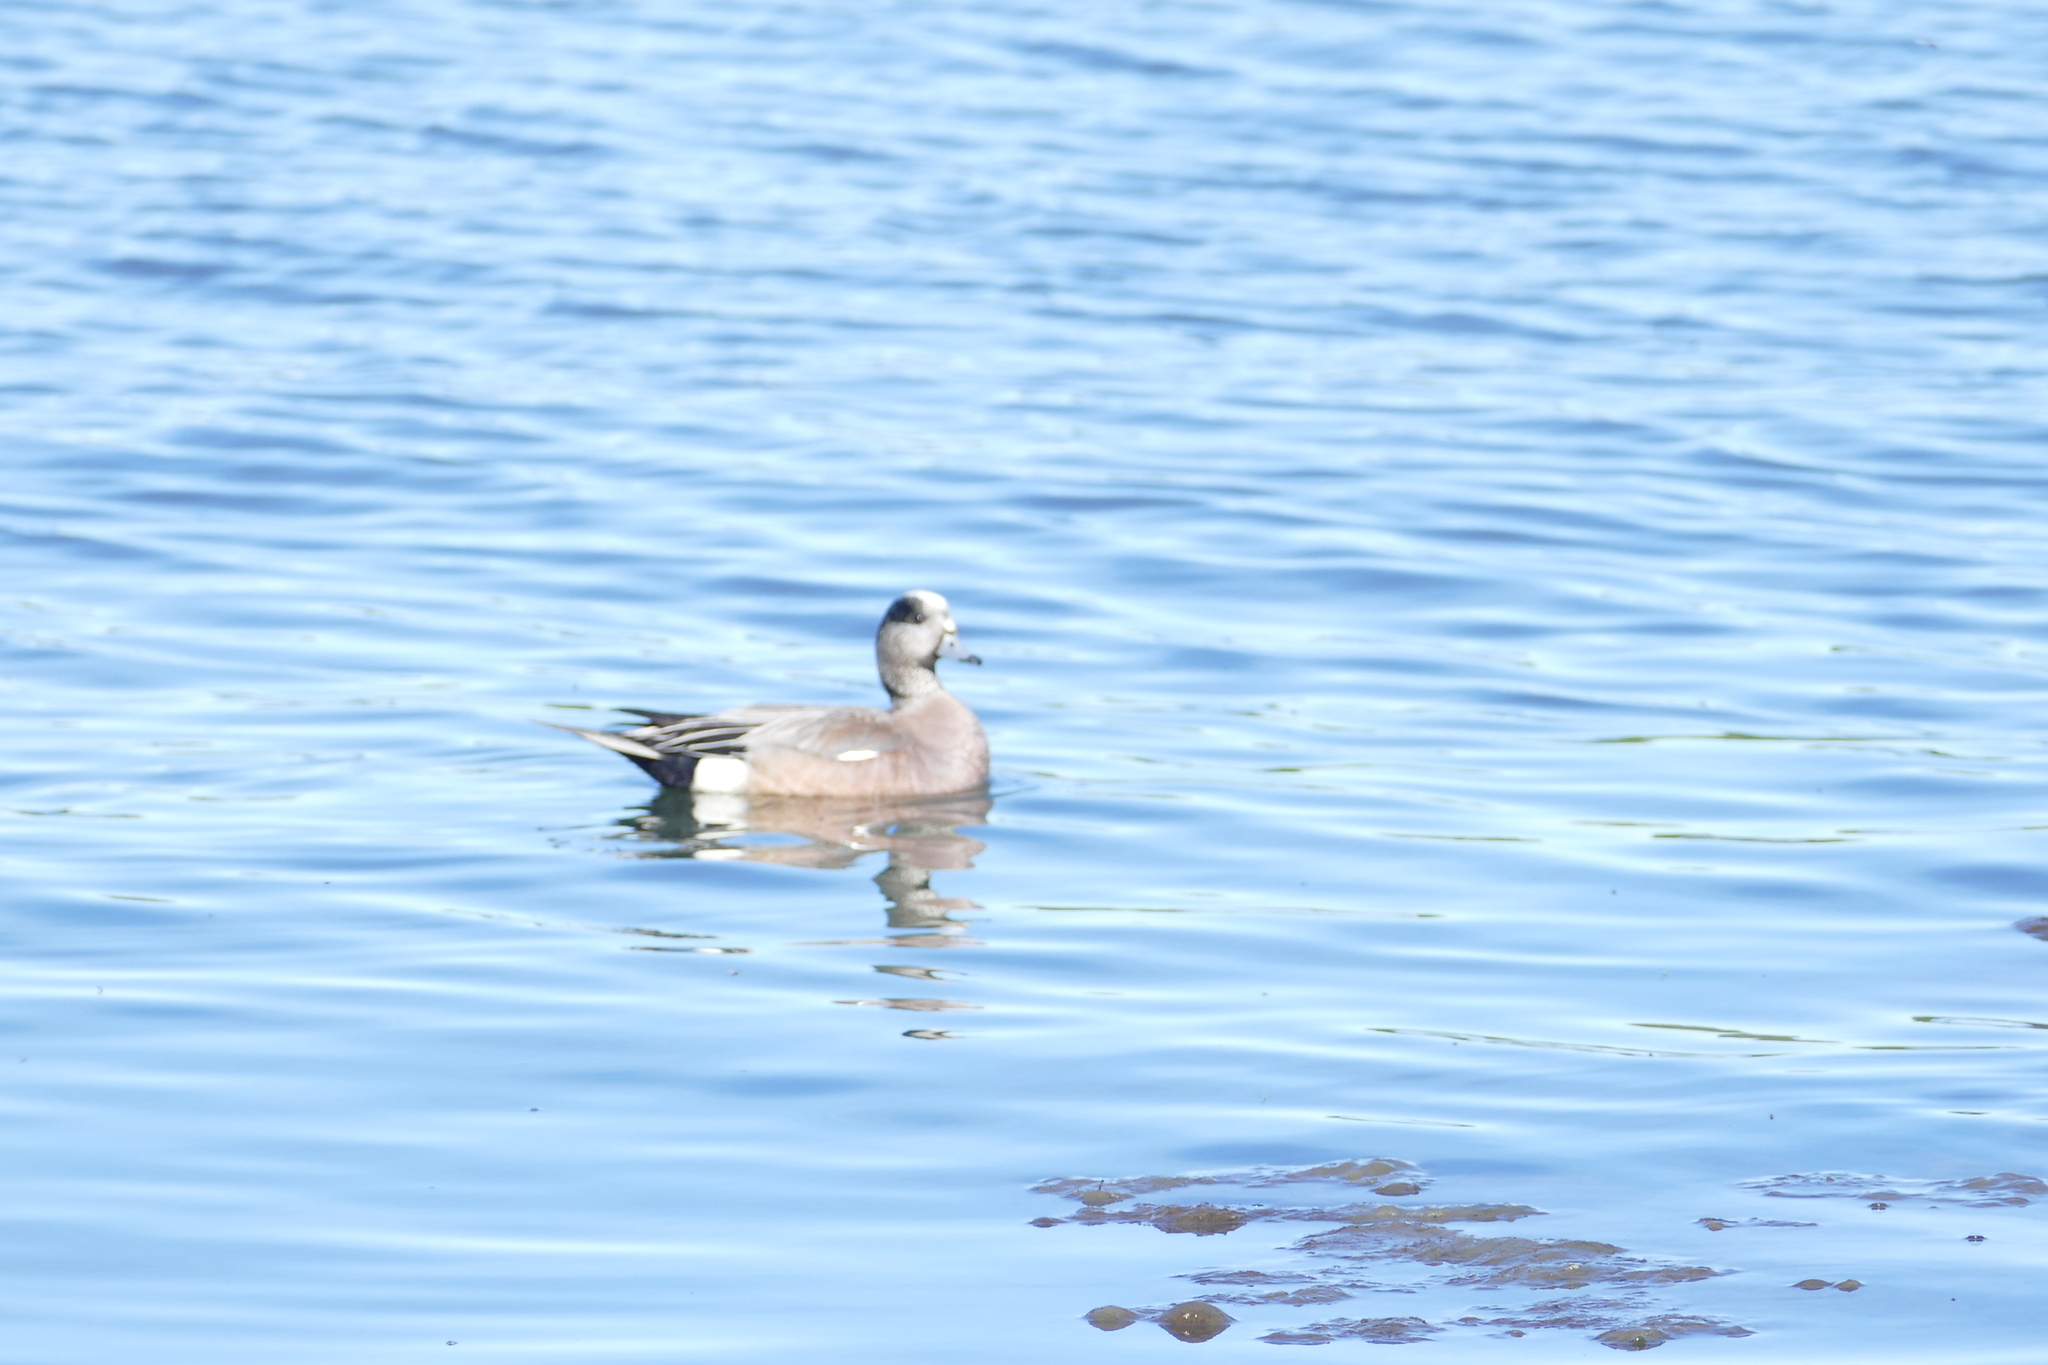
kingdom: Animalia
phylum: Chordata
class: Aves
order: Anseriformes
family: Anatidae
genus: Mareca
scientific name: Mareca americana
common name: American wigeon
